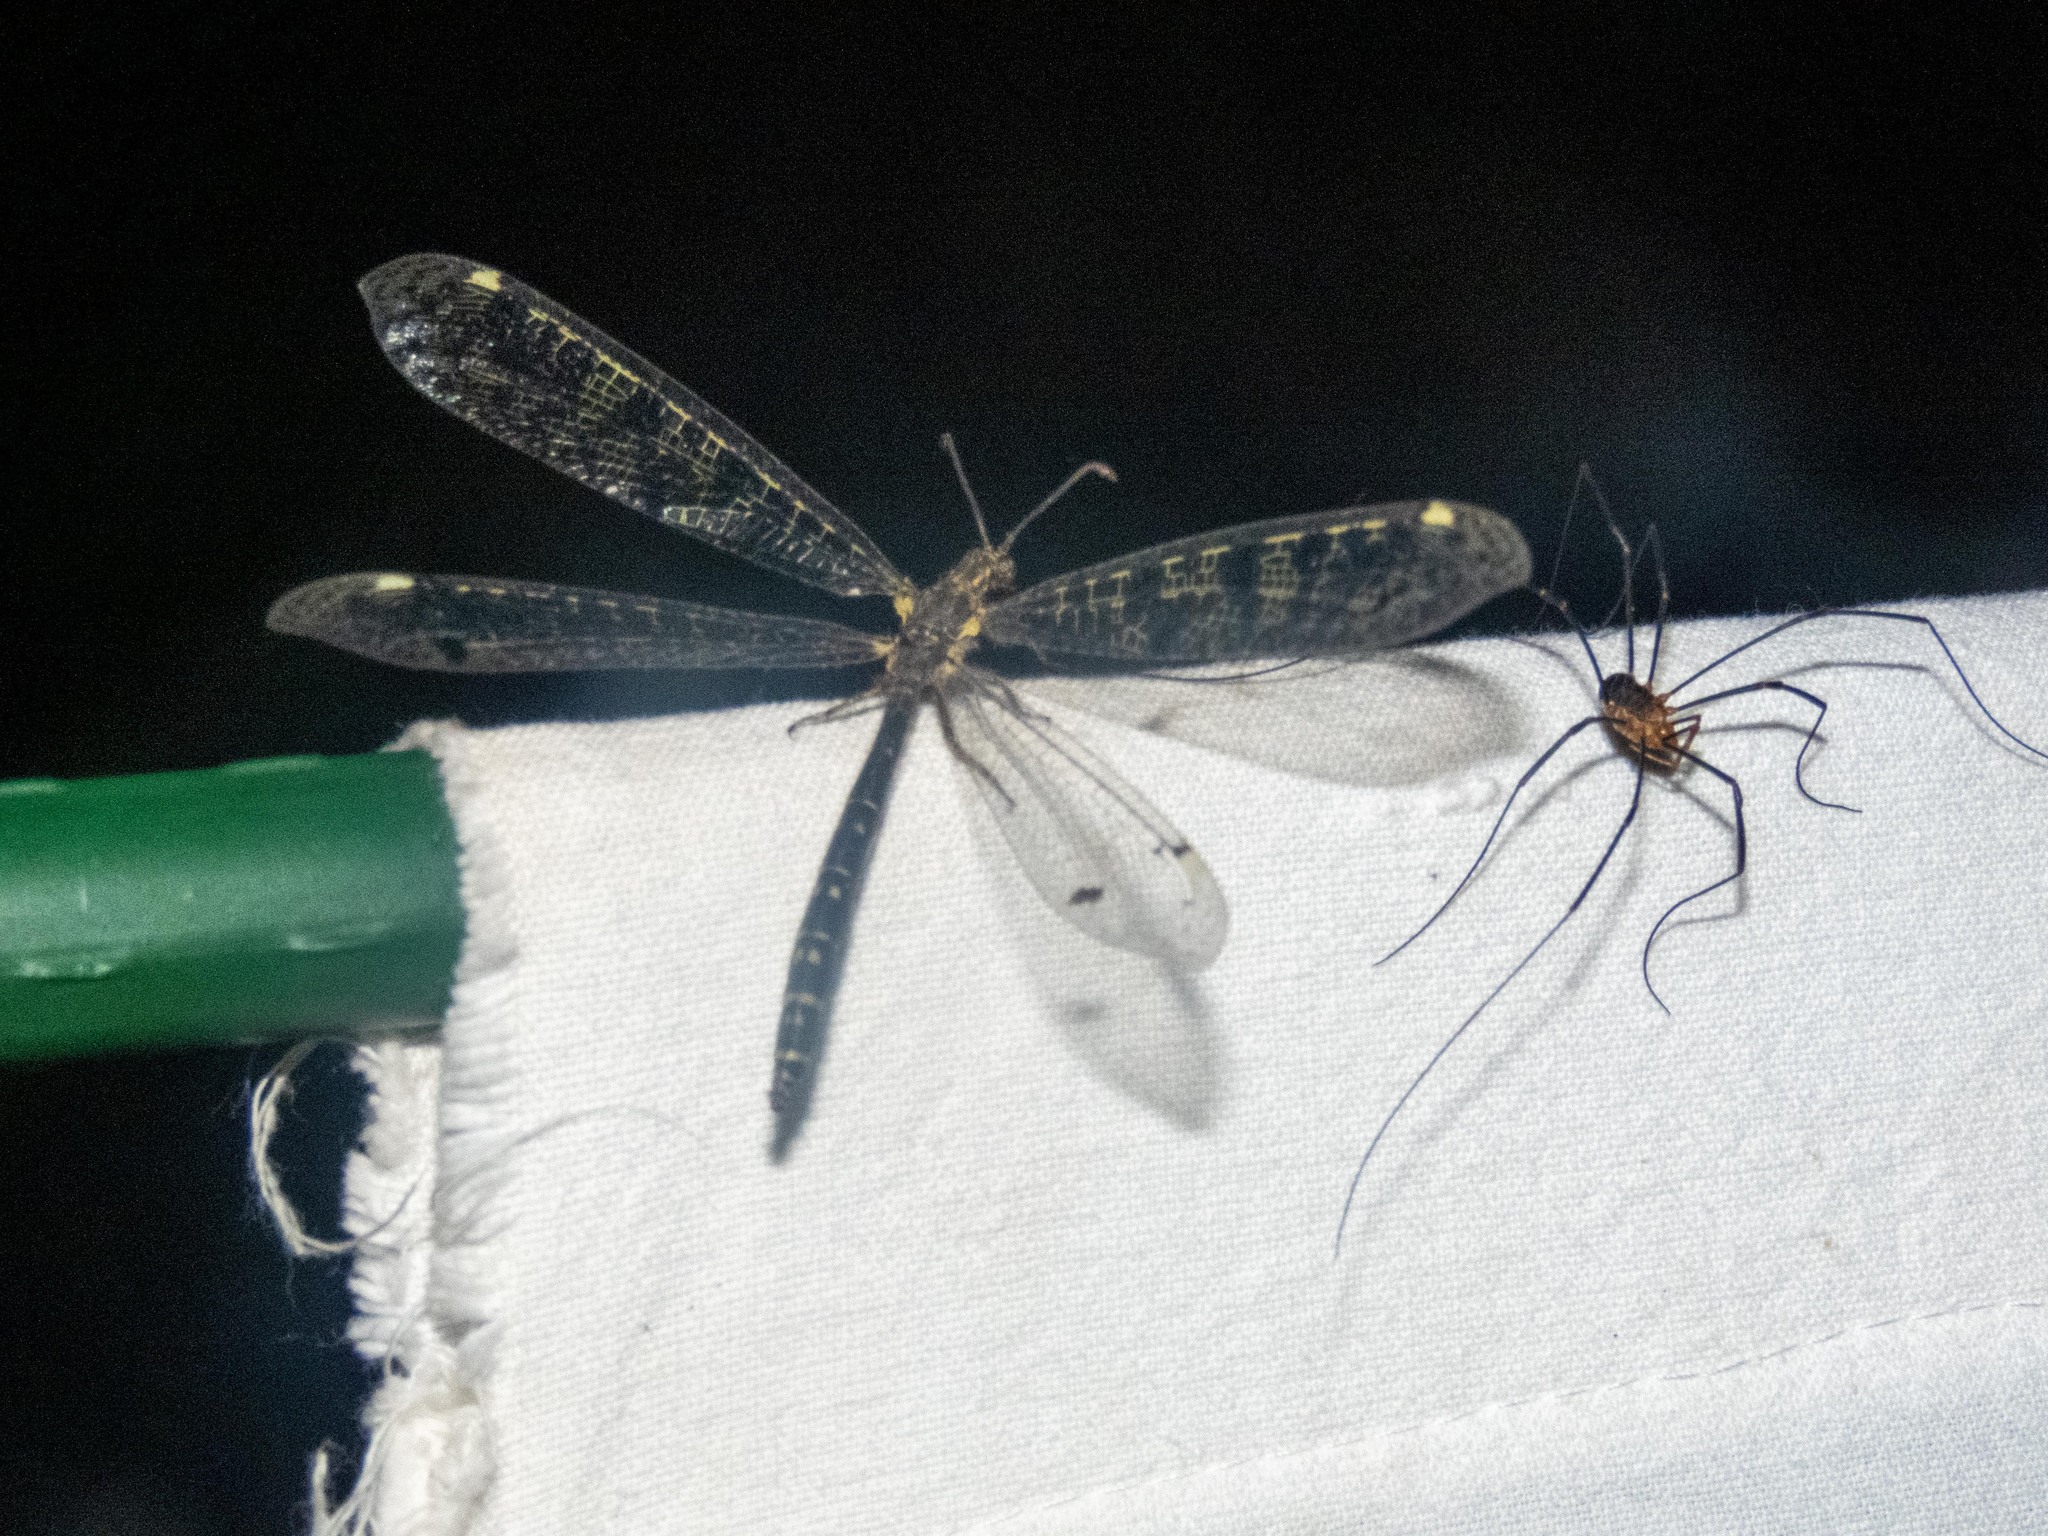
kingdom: Animalia
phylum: Arthropoda
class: Insecta
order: Neuroptera
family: Myrmeleontidae
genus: Distoleon
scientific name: Distoleon tetragrammicus
